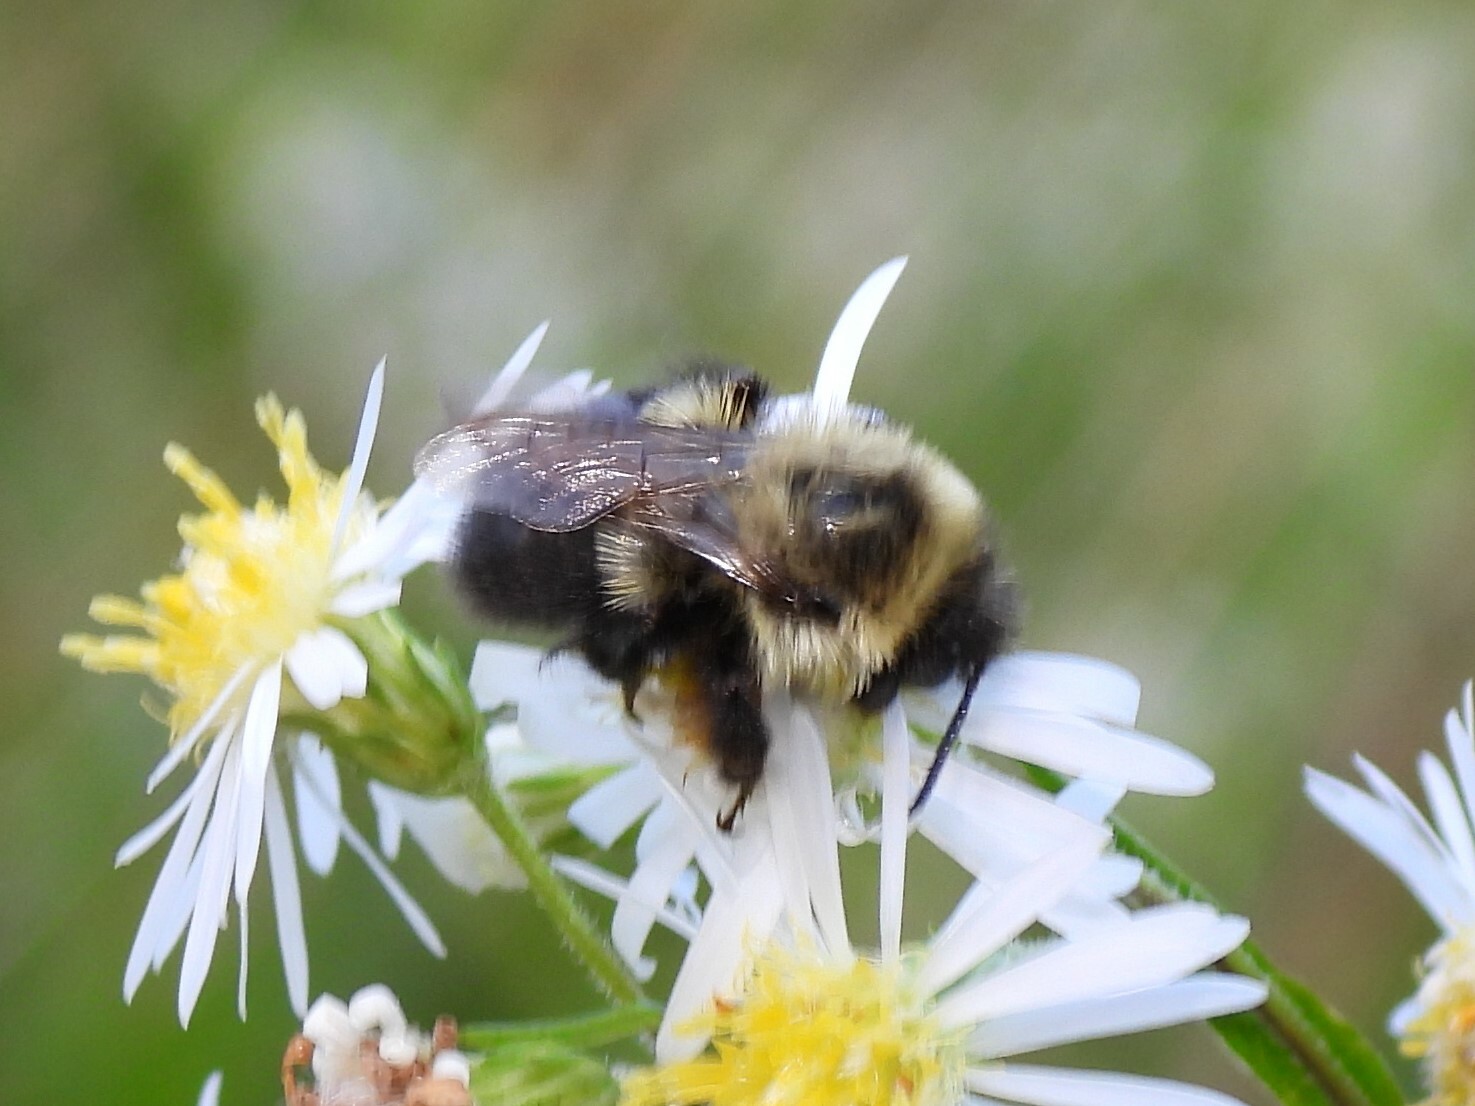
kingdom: Animalia
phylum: Arthropoda
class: Insecta
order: Hymenoptera
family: Apidae
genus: Bombus
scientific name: Bombus impatiens
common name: Common eastern bumble bee
